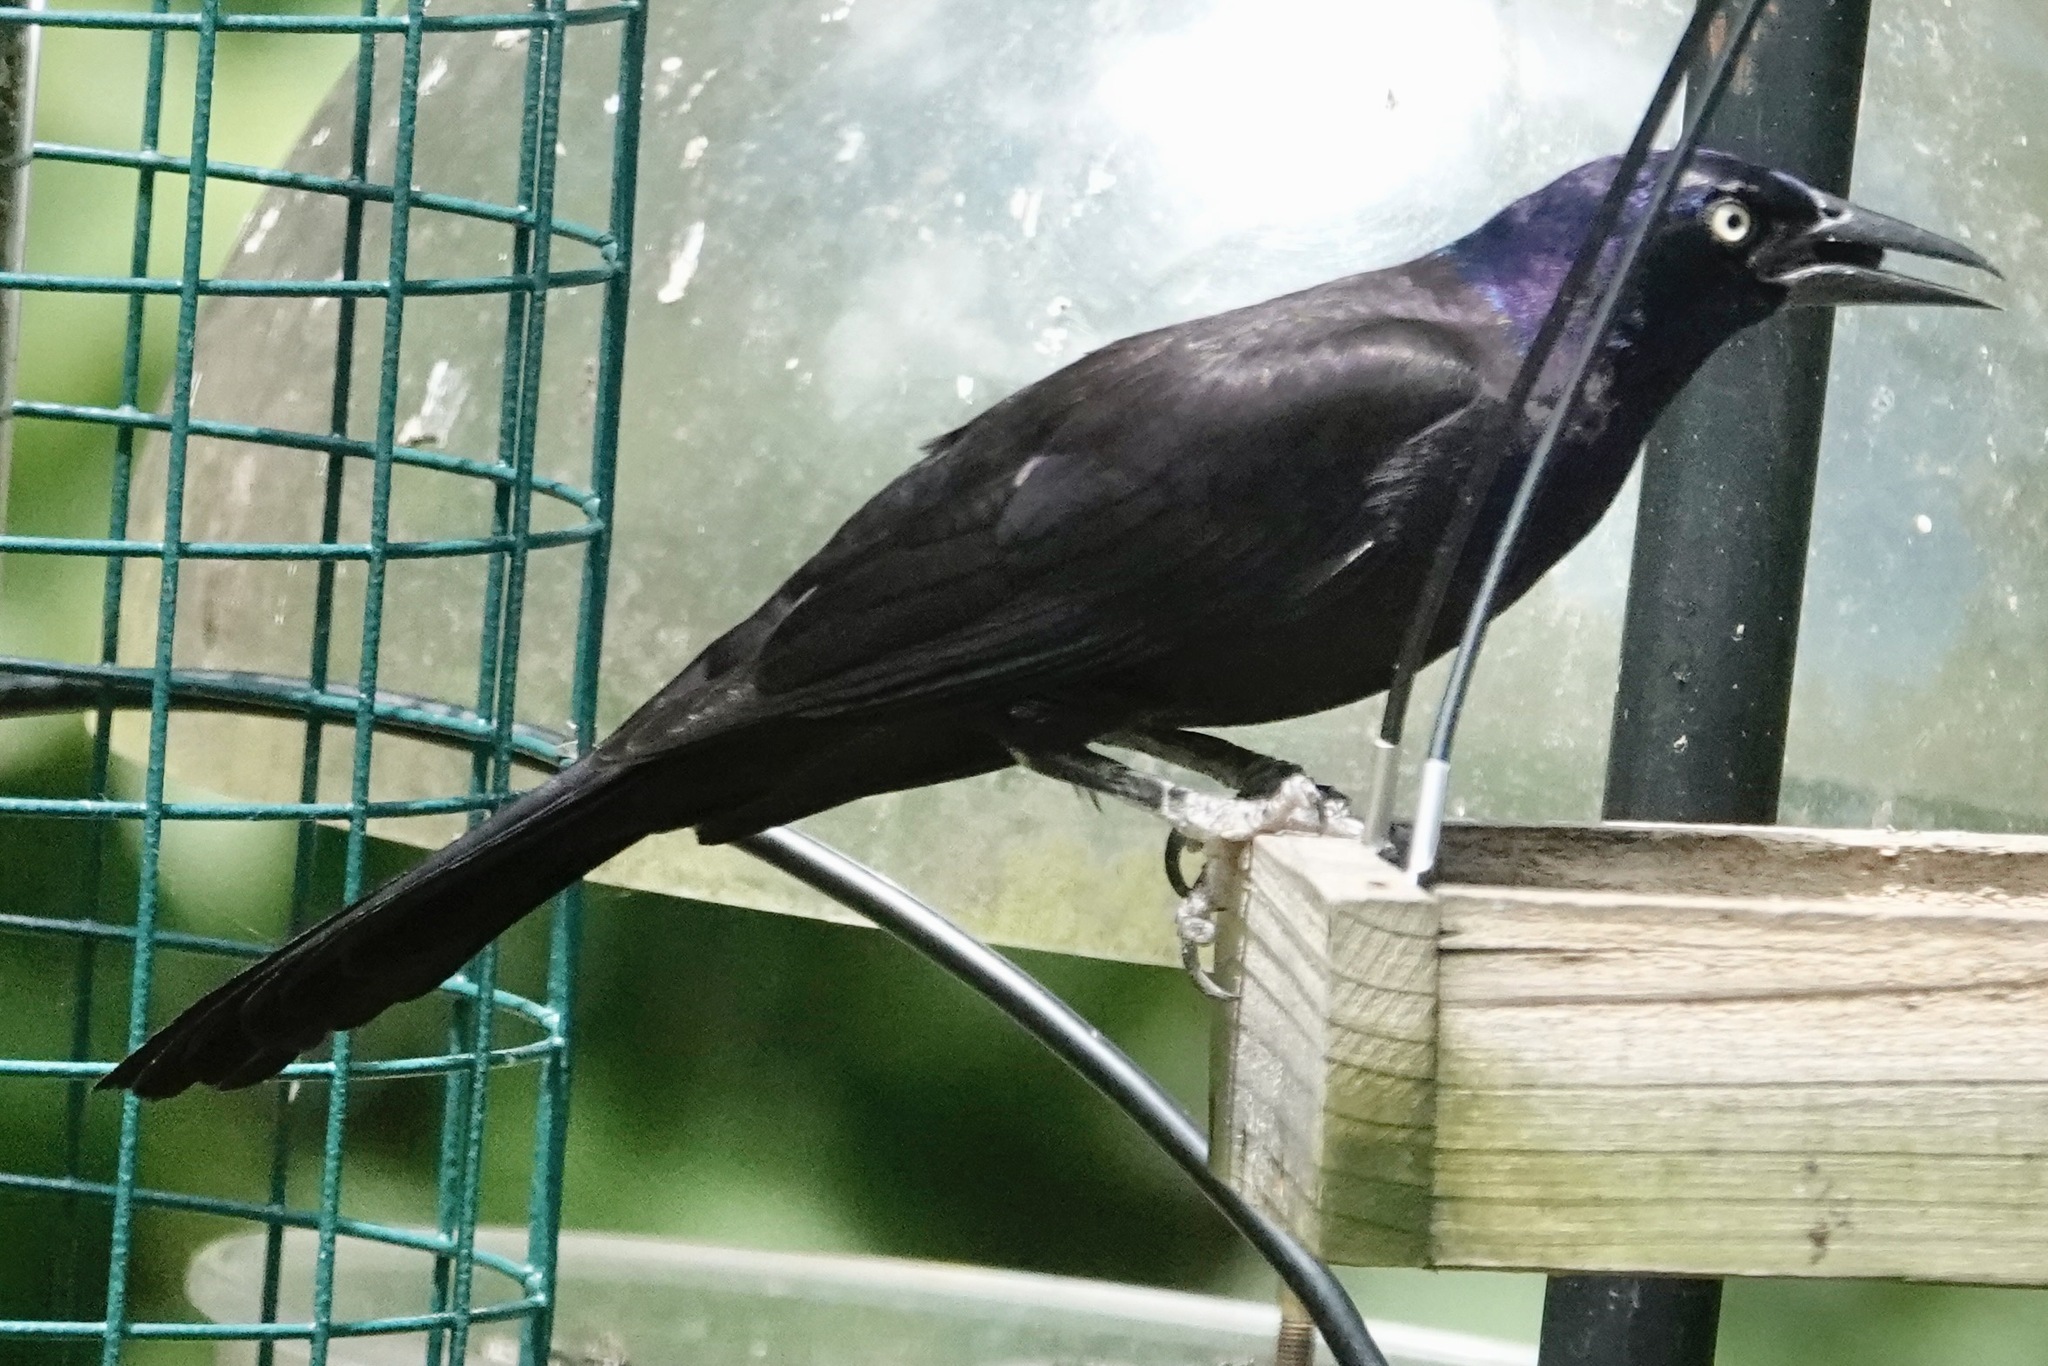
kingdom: Animalia
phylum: Chordata
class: Aves
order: Passeriformes
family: Icteridae
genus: Quiscalus
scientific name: Quiscalus quiscula
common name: Common grackle
